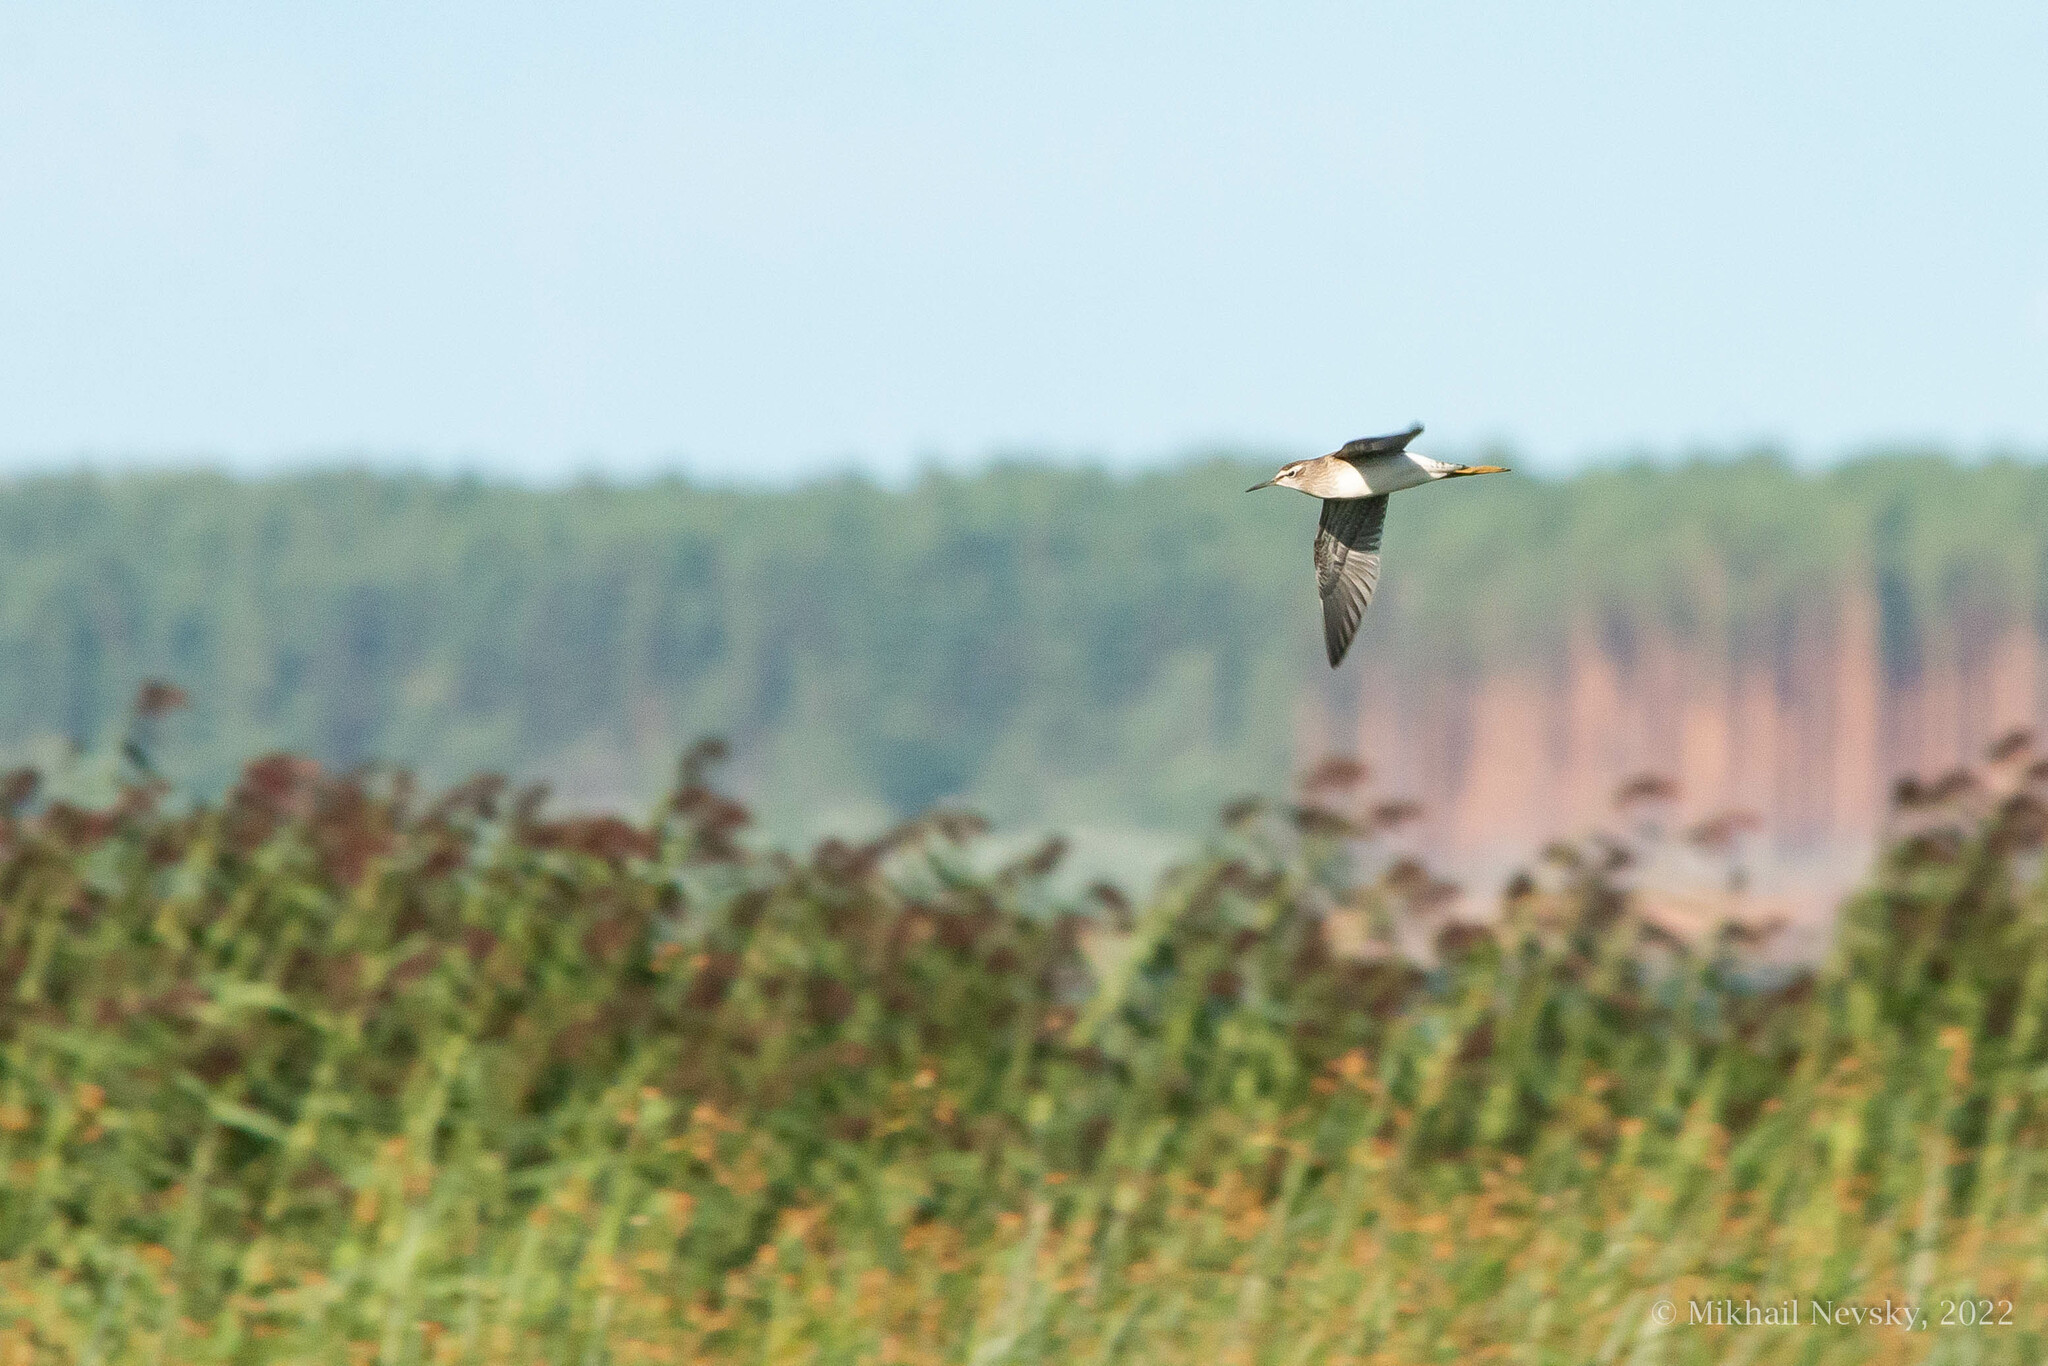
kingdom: Animalia
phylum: Chordata
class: Aves
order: Charadriiformes
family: Scolopacidae
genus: Tringa
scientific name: Tringa glareola
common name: Wood sandpiper
